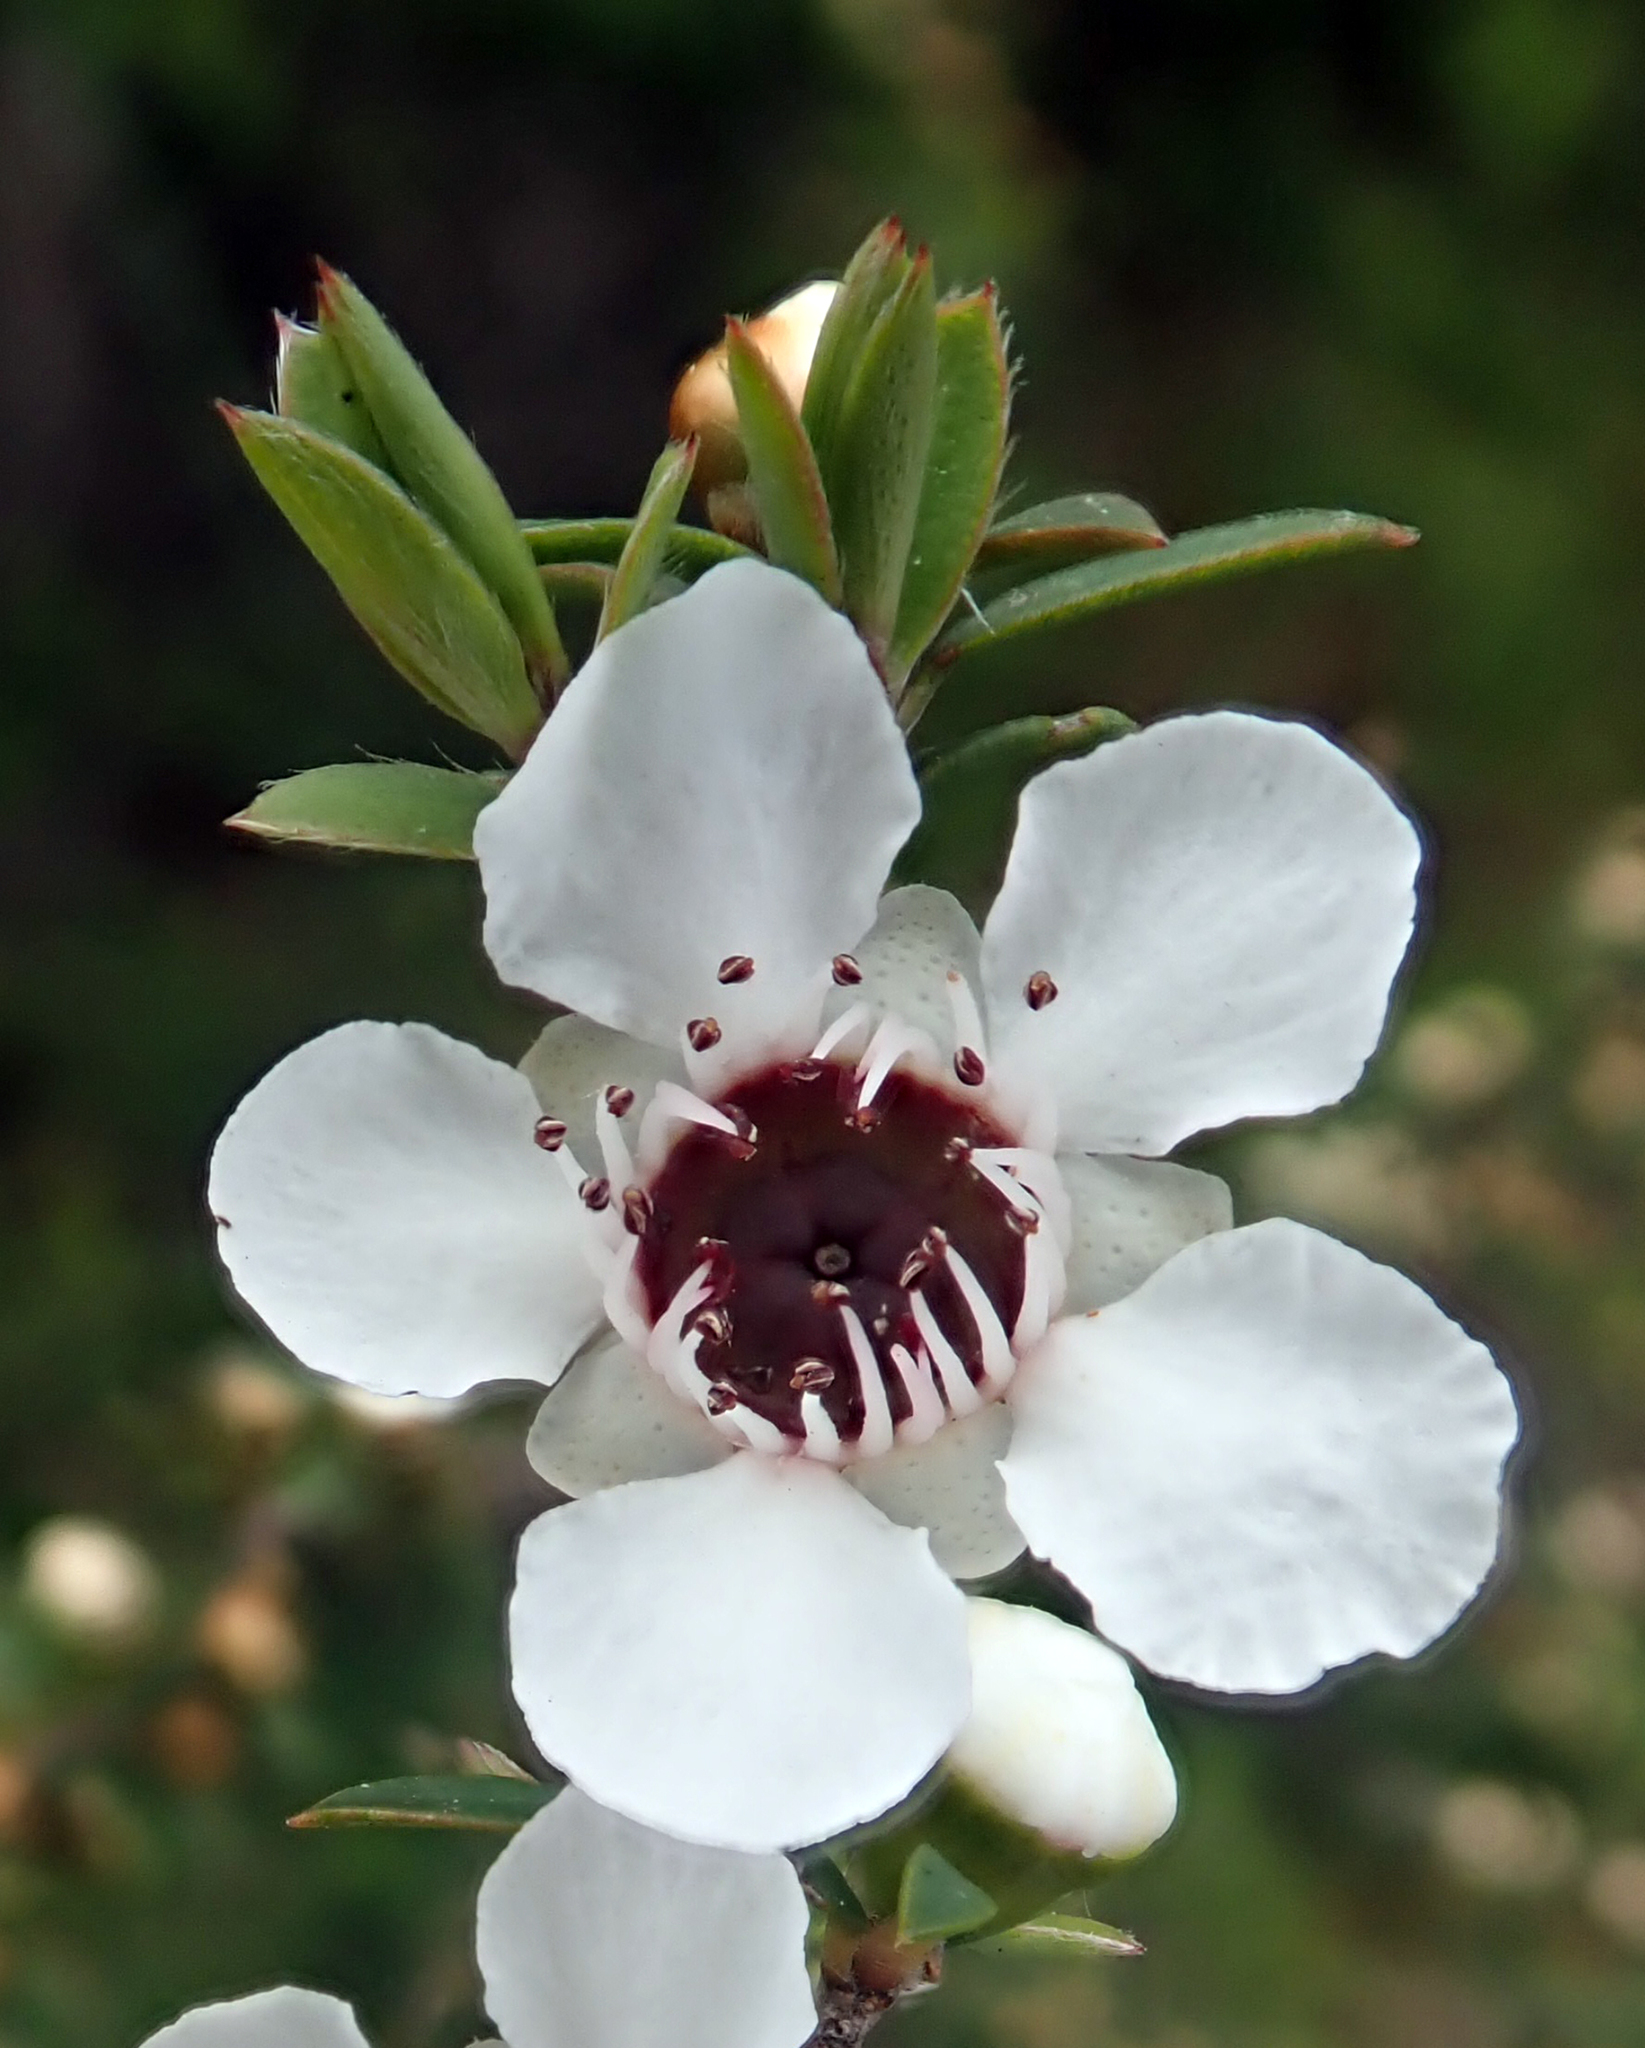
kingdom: Plantae
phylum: Tracheophyta
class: Magnoliopsida
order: Myrtales
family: Myrtaceae
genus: Leptospermum
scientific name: Leptospermum scoparium
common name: Broom tea-tree
